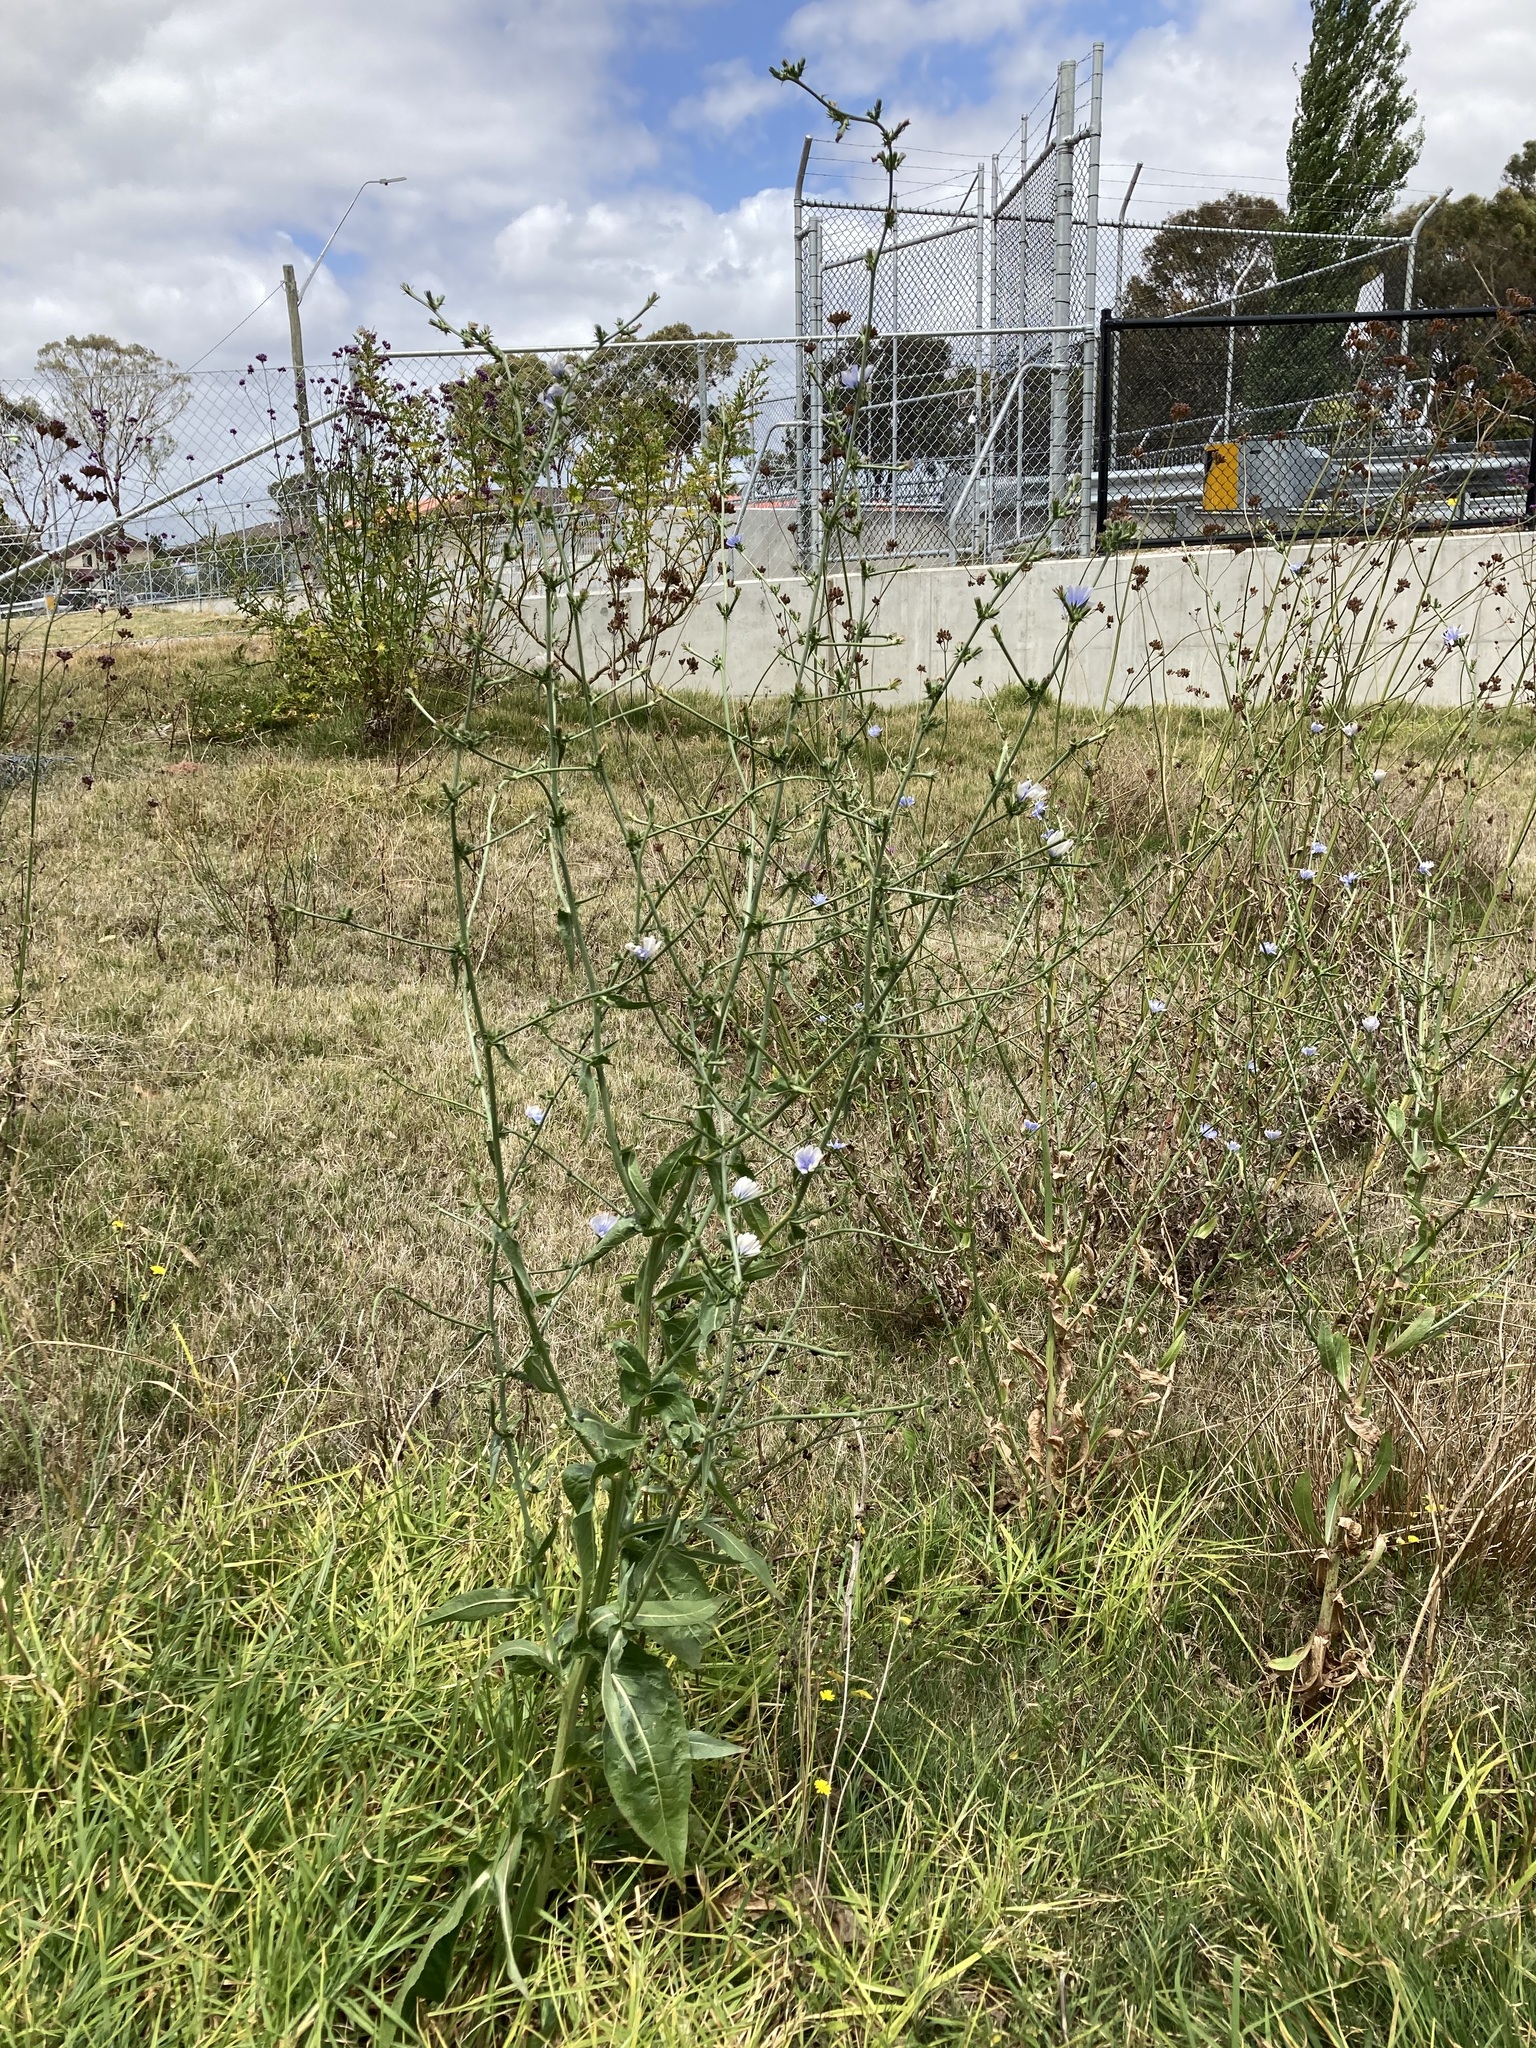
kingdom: Plantae
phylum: Tracheophyta
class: Magnoliopsida
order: Asterales
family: Asteraceae
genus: Cichorium
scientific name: Cichorium intybus
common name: Chicory
